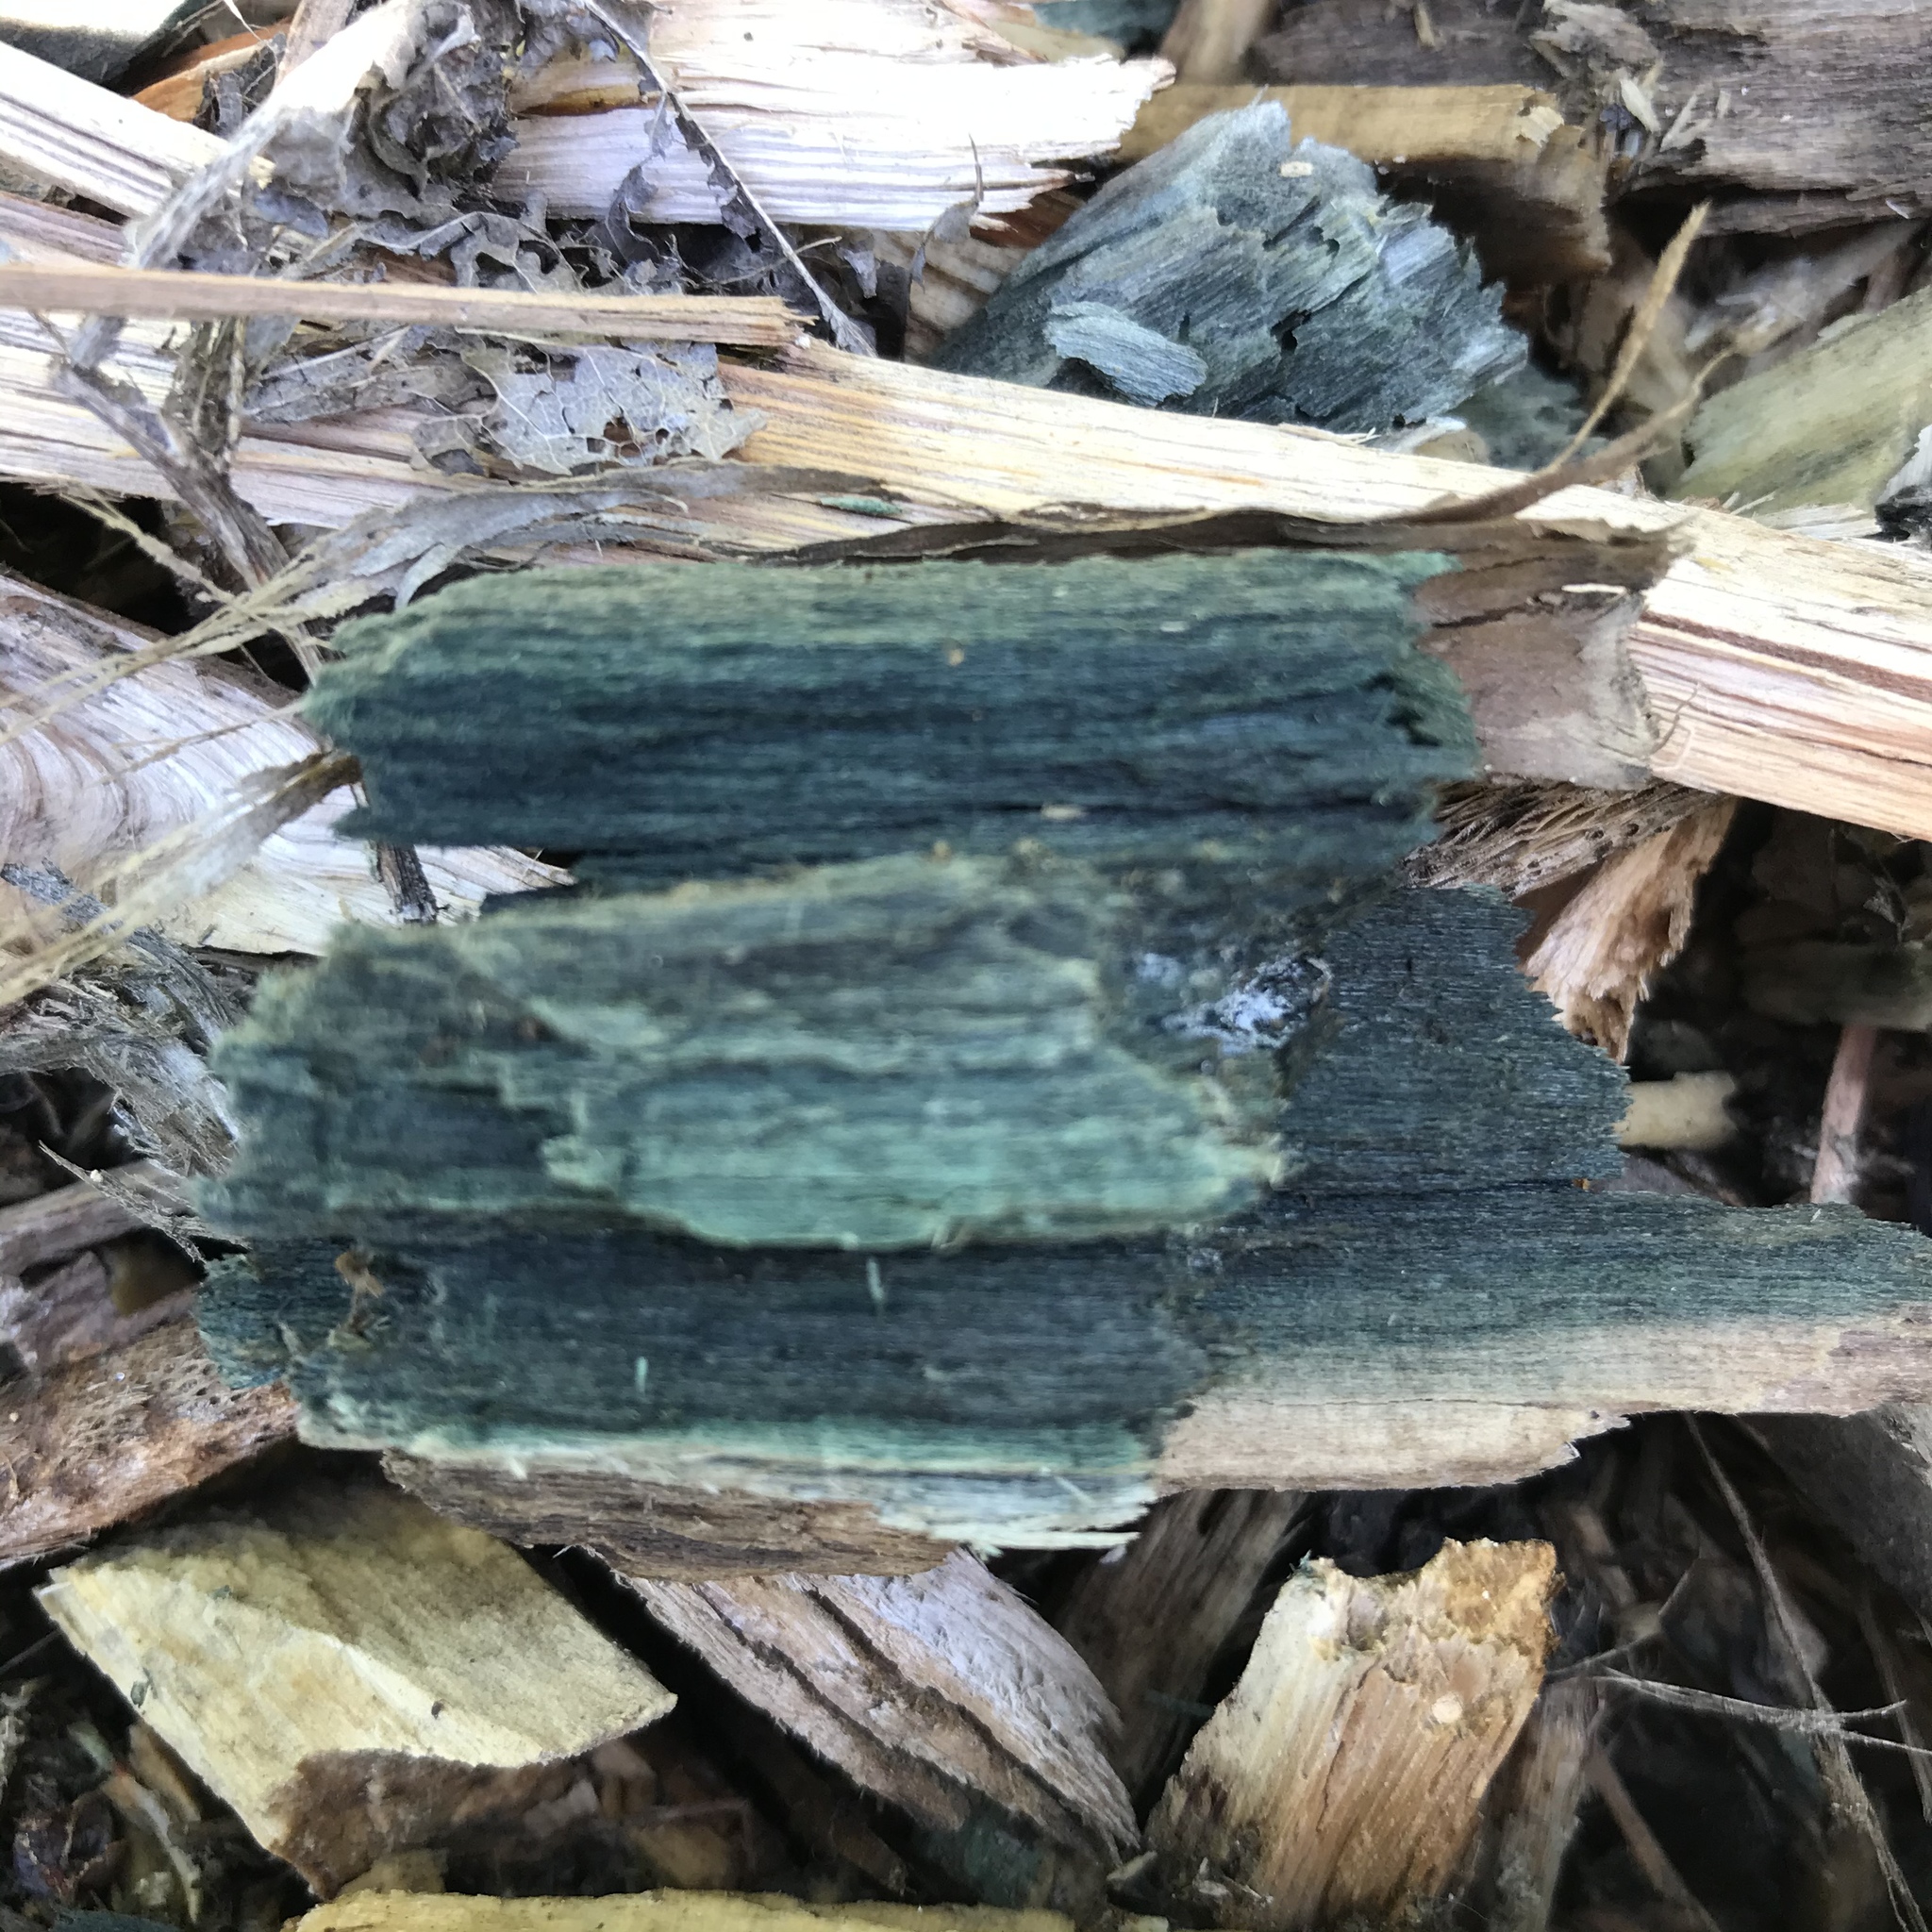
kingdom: Fungi
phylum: Ascomycota
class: Leotiomycetes
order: Helotiales
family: Chlorociboriaceae
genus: Chlorociboria
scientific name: Chlorociboria
